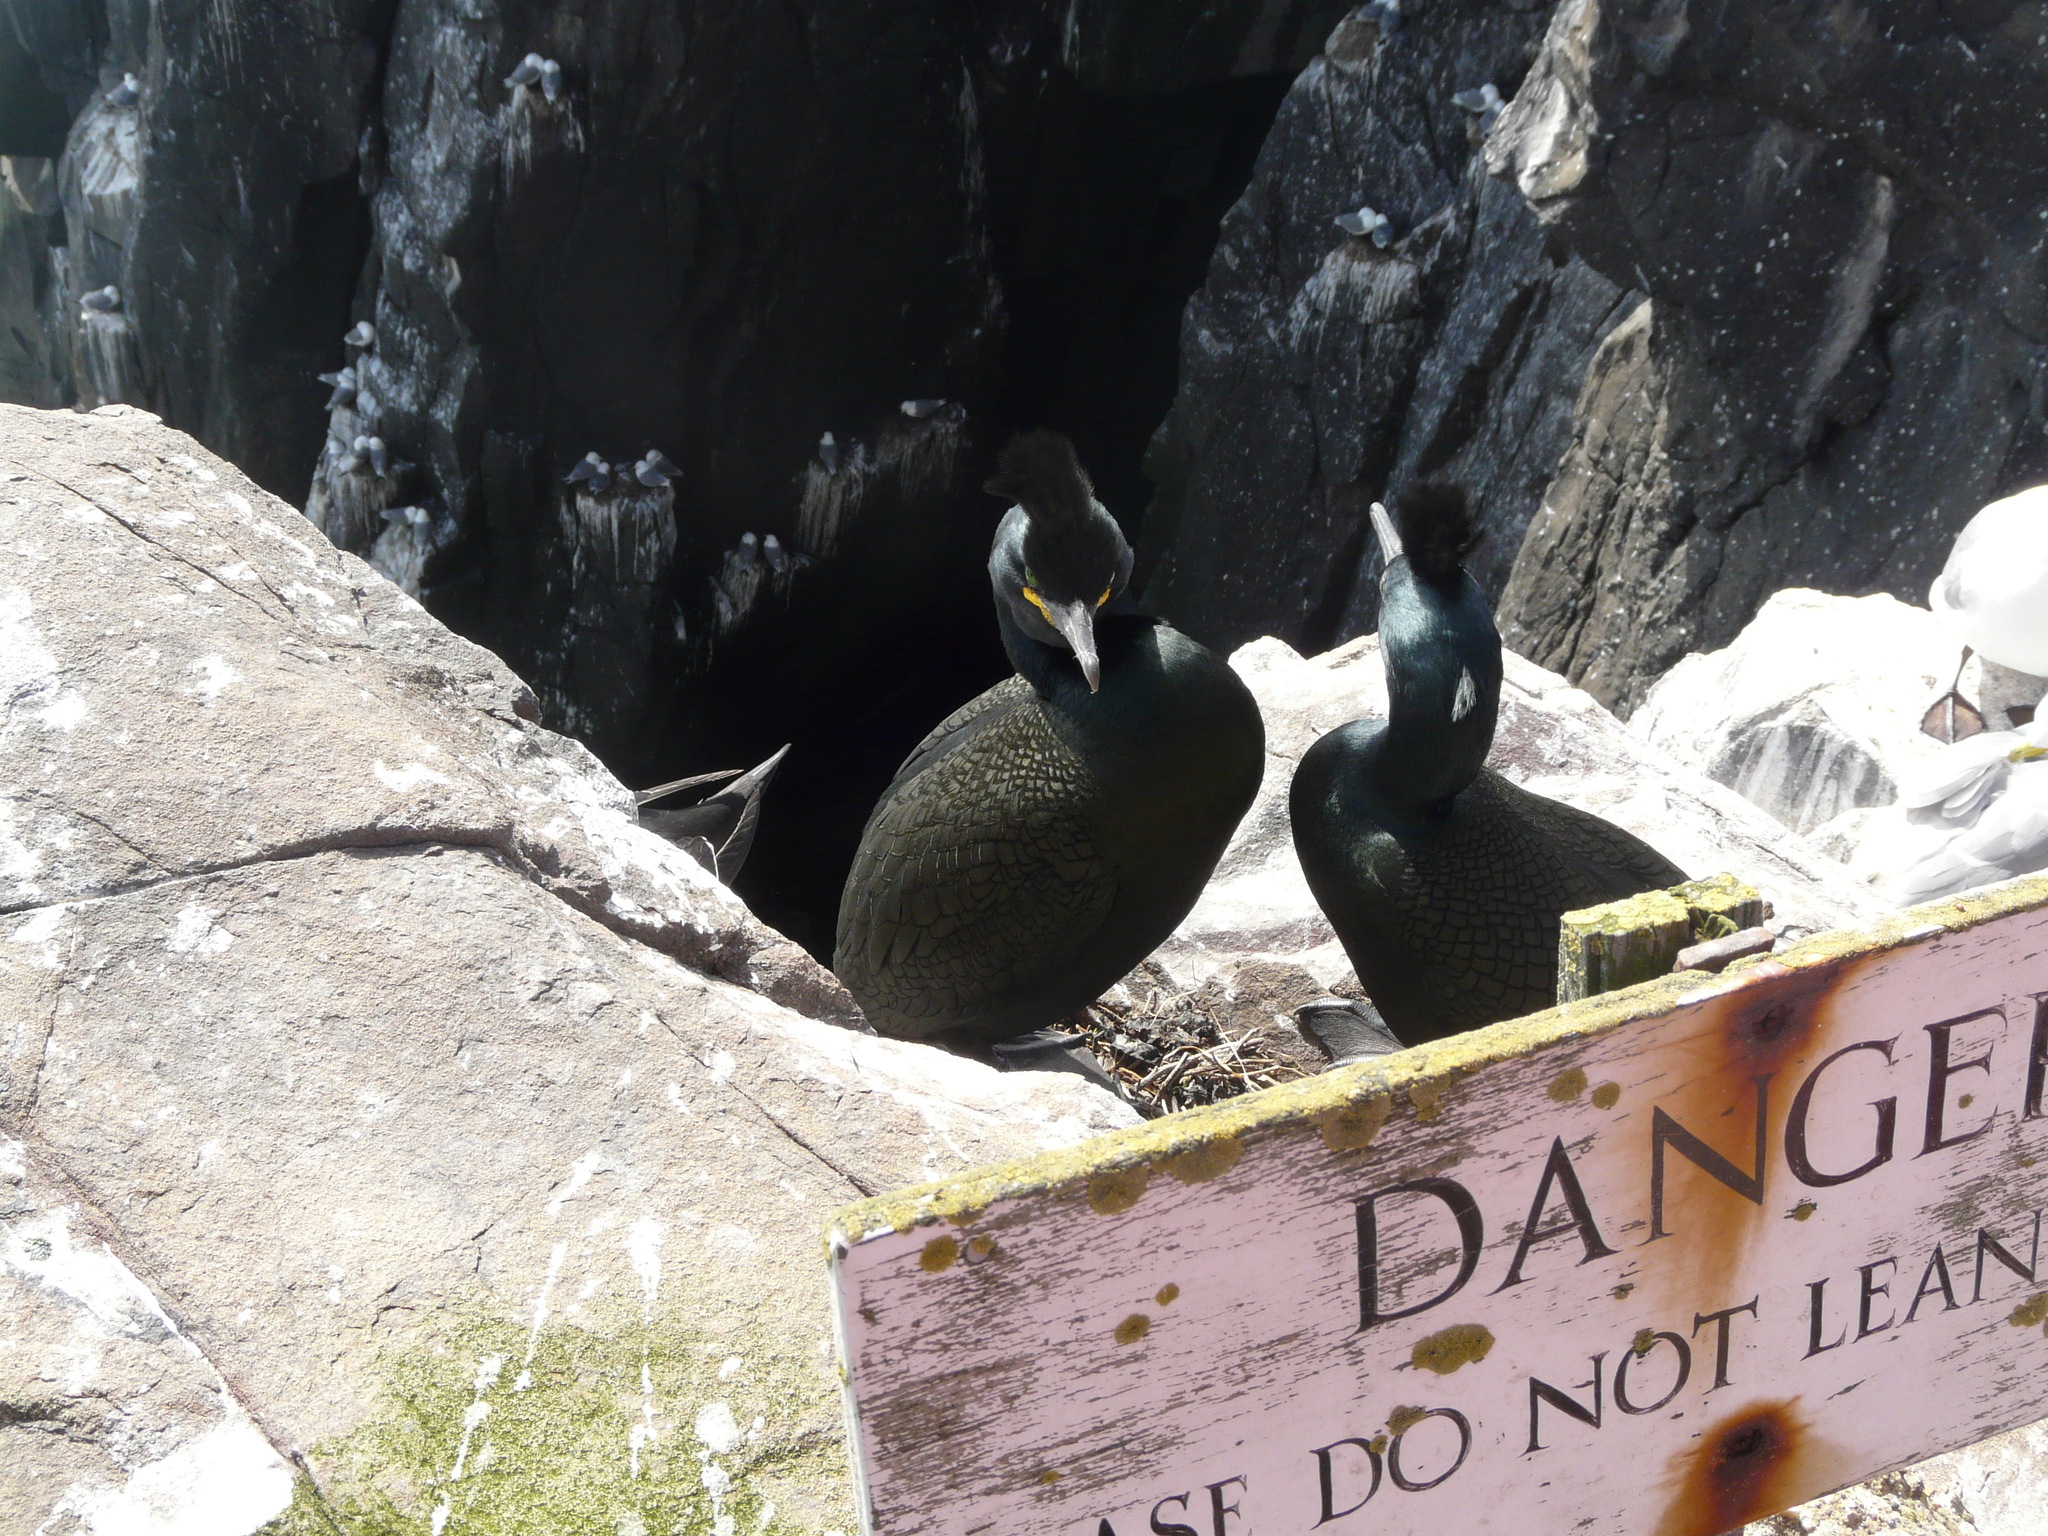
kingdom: Animalia
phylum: Chordata
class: Aves
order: Suliformes
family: Phalacrocoracidae
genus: Phalacrocorax
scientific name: Phalacrocorax aristotelis
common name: European shag
